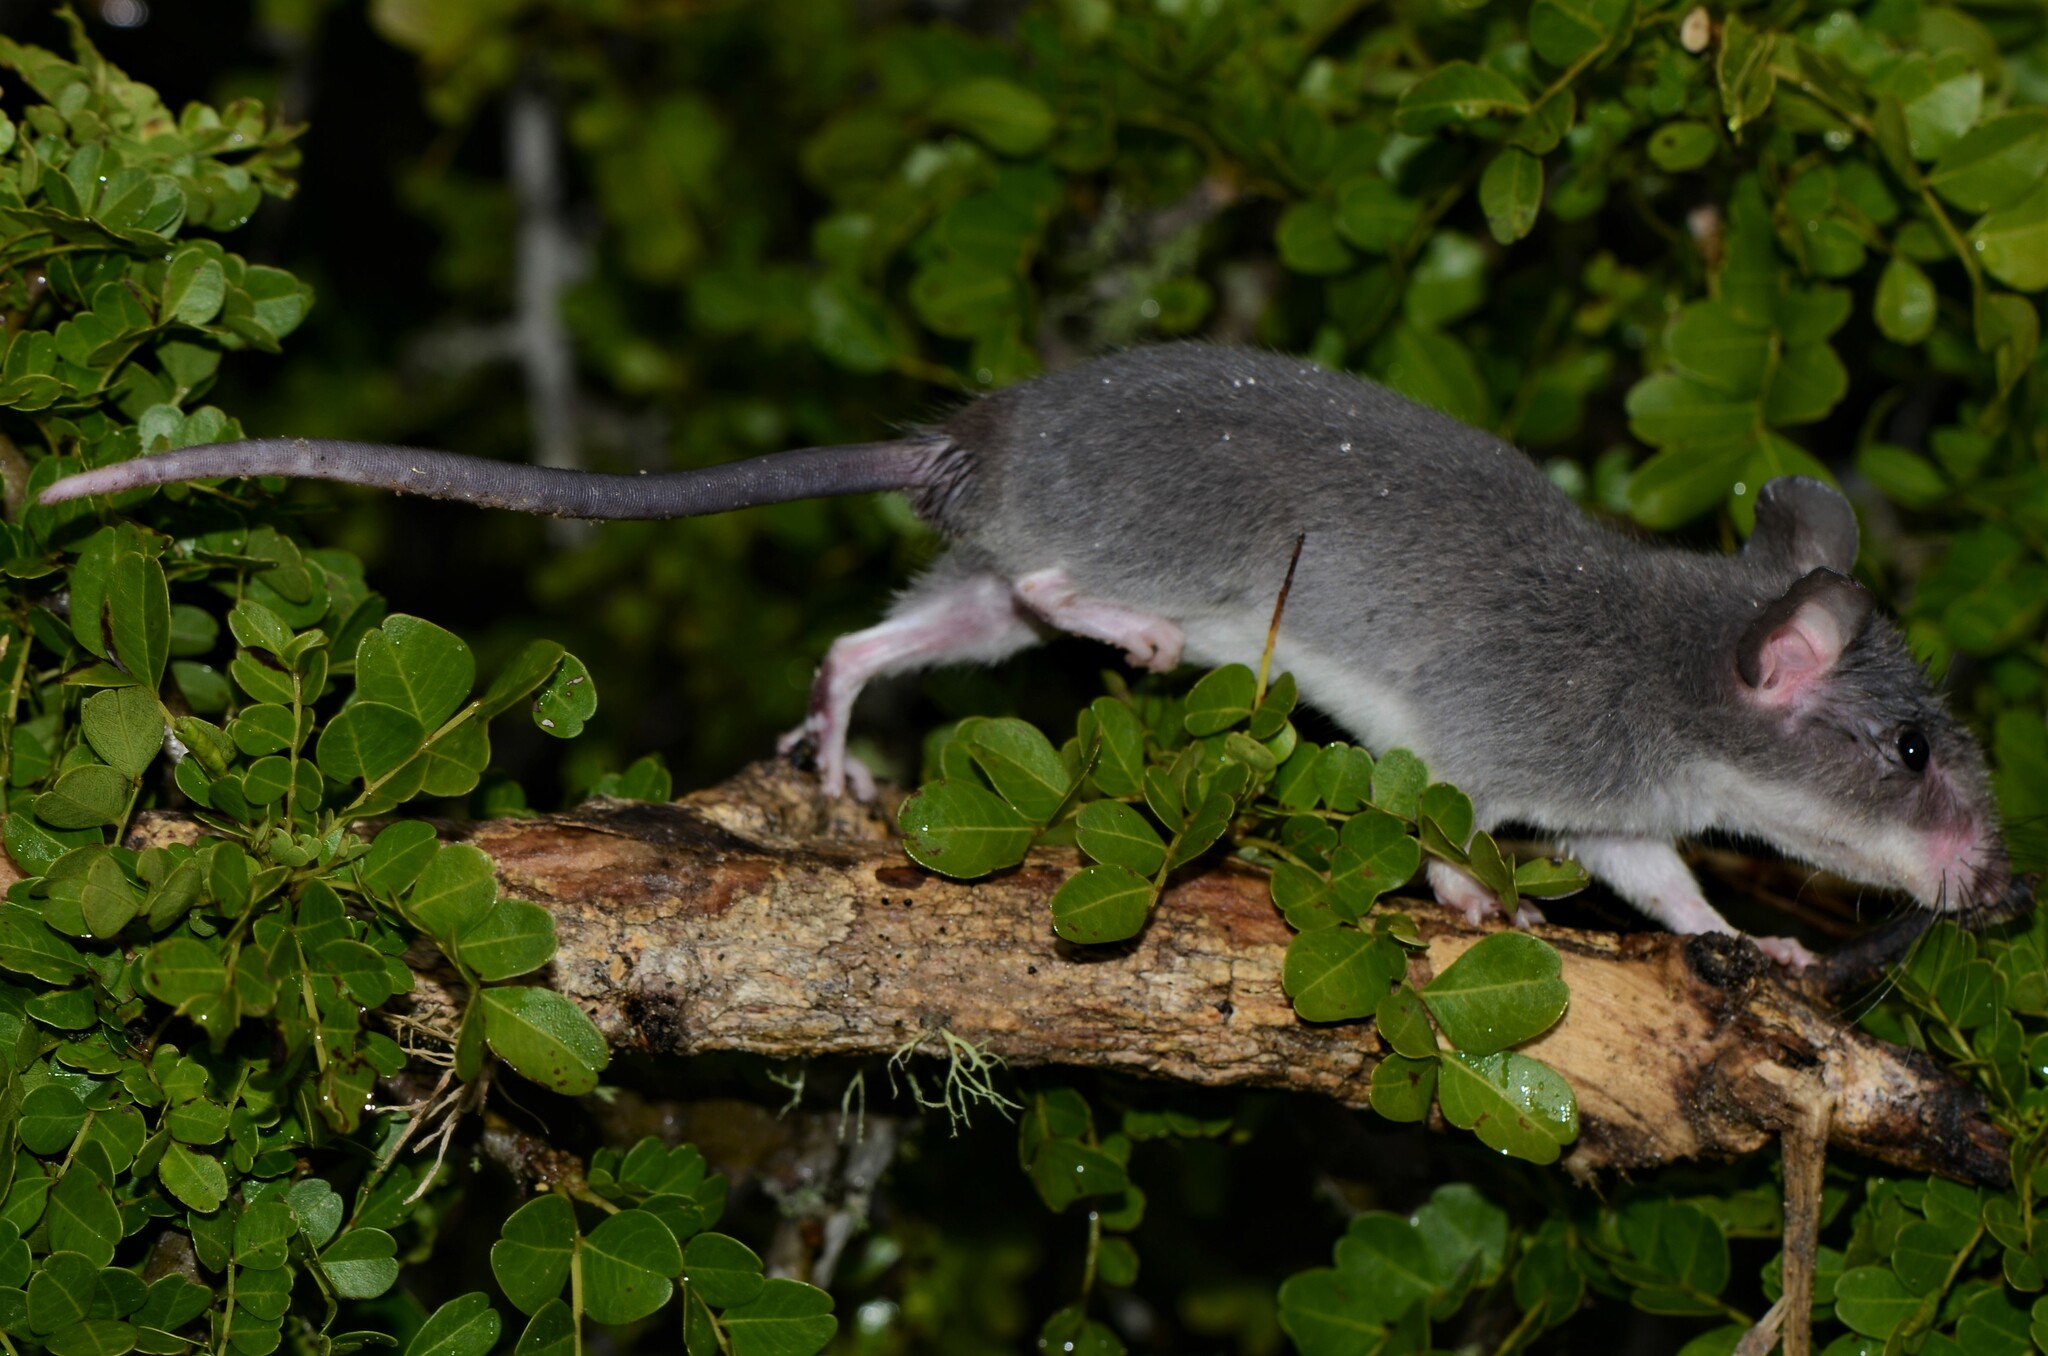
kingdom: Animalia
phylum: Chordata
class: Mammalia
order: Rodentia
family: Nesomyidae
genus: Beamys
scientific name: Beamys hindei
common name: Lesser hamster-rat, long-tailed pouched rat
